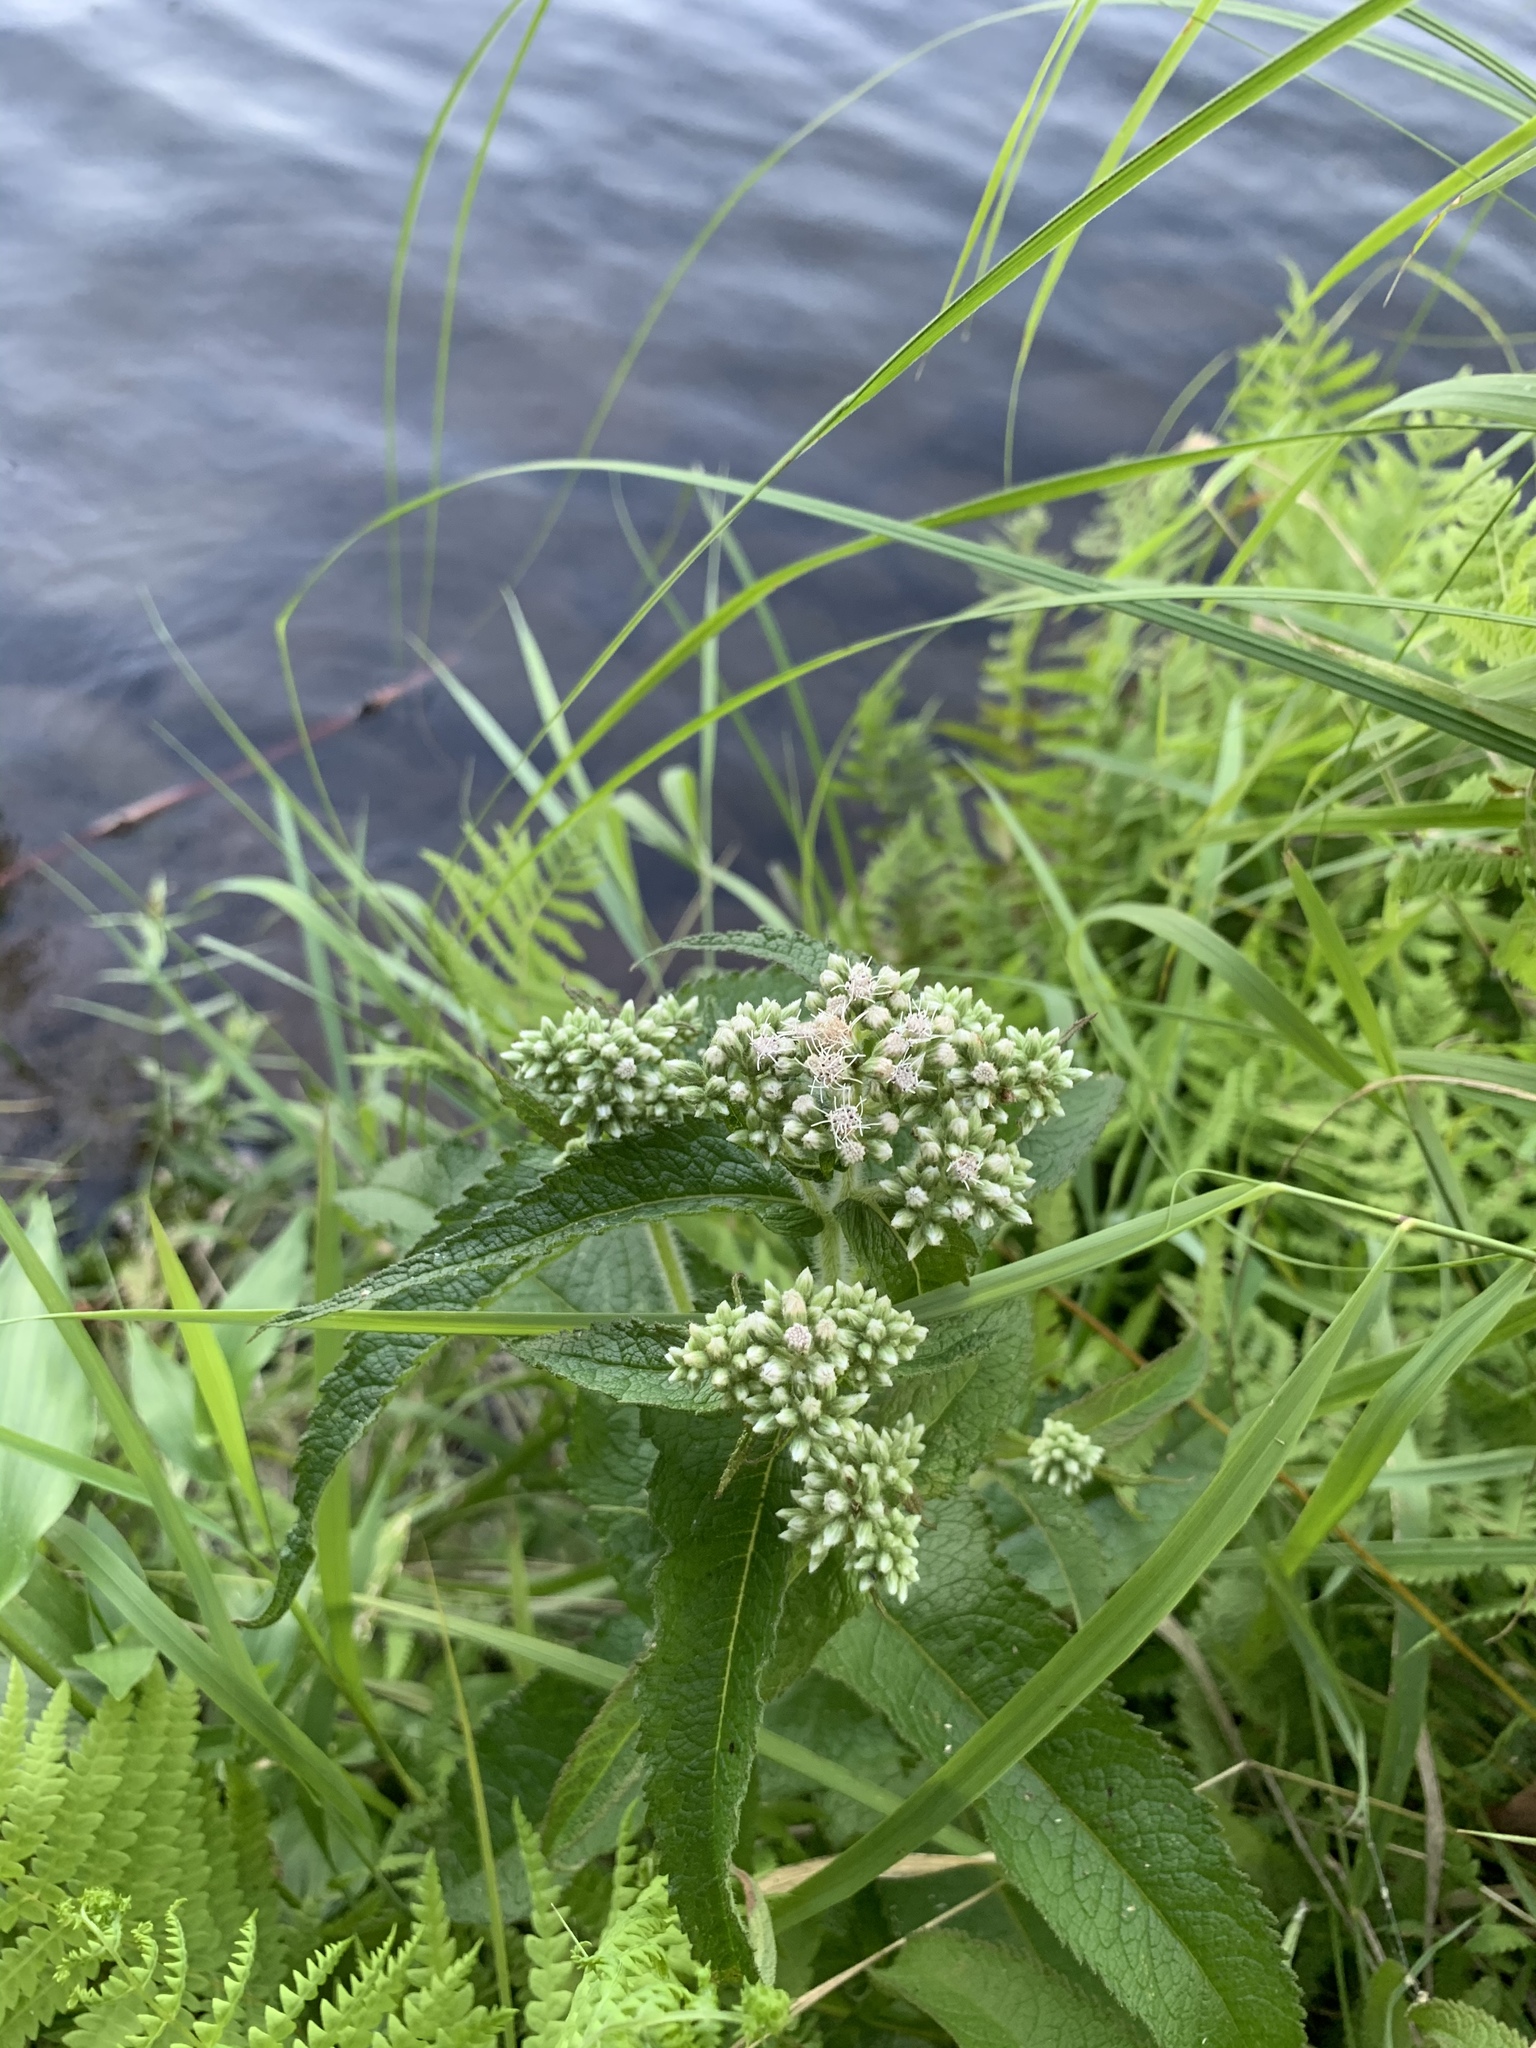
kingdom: Plantae
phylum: Tracheophyta
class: Magnoliopsida
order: Asterales
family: Asteraceae
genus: Eupatorium
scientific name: Eupatorium perfoliatum
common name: Boneset
